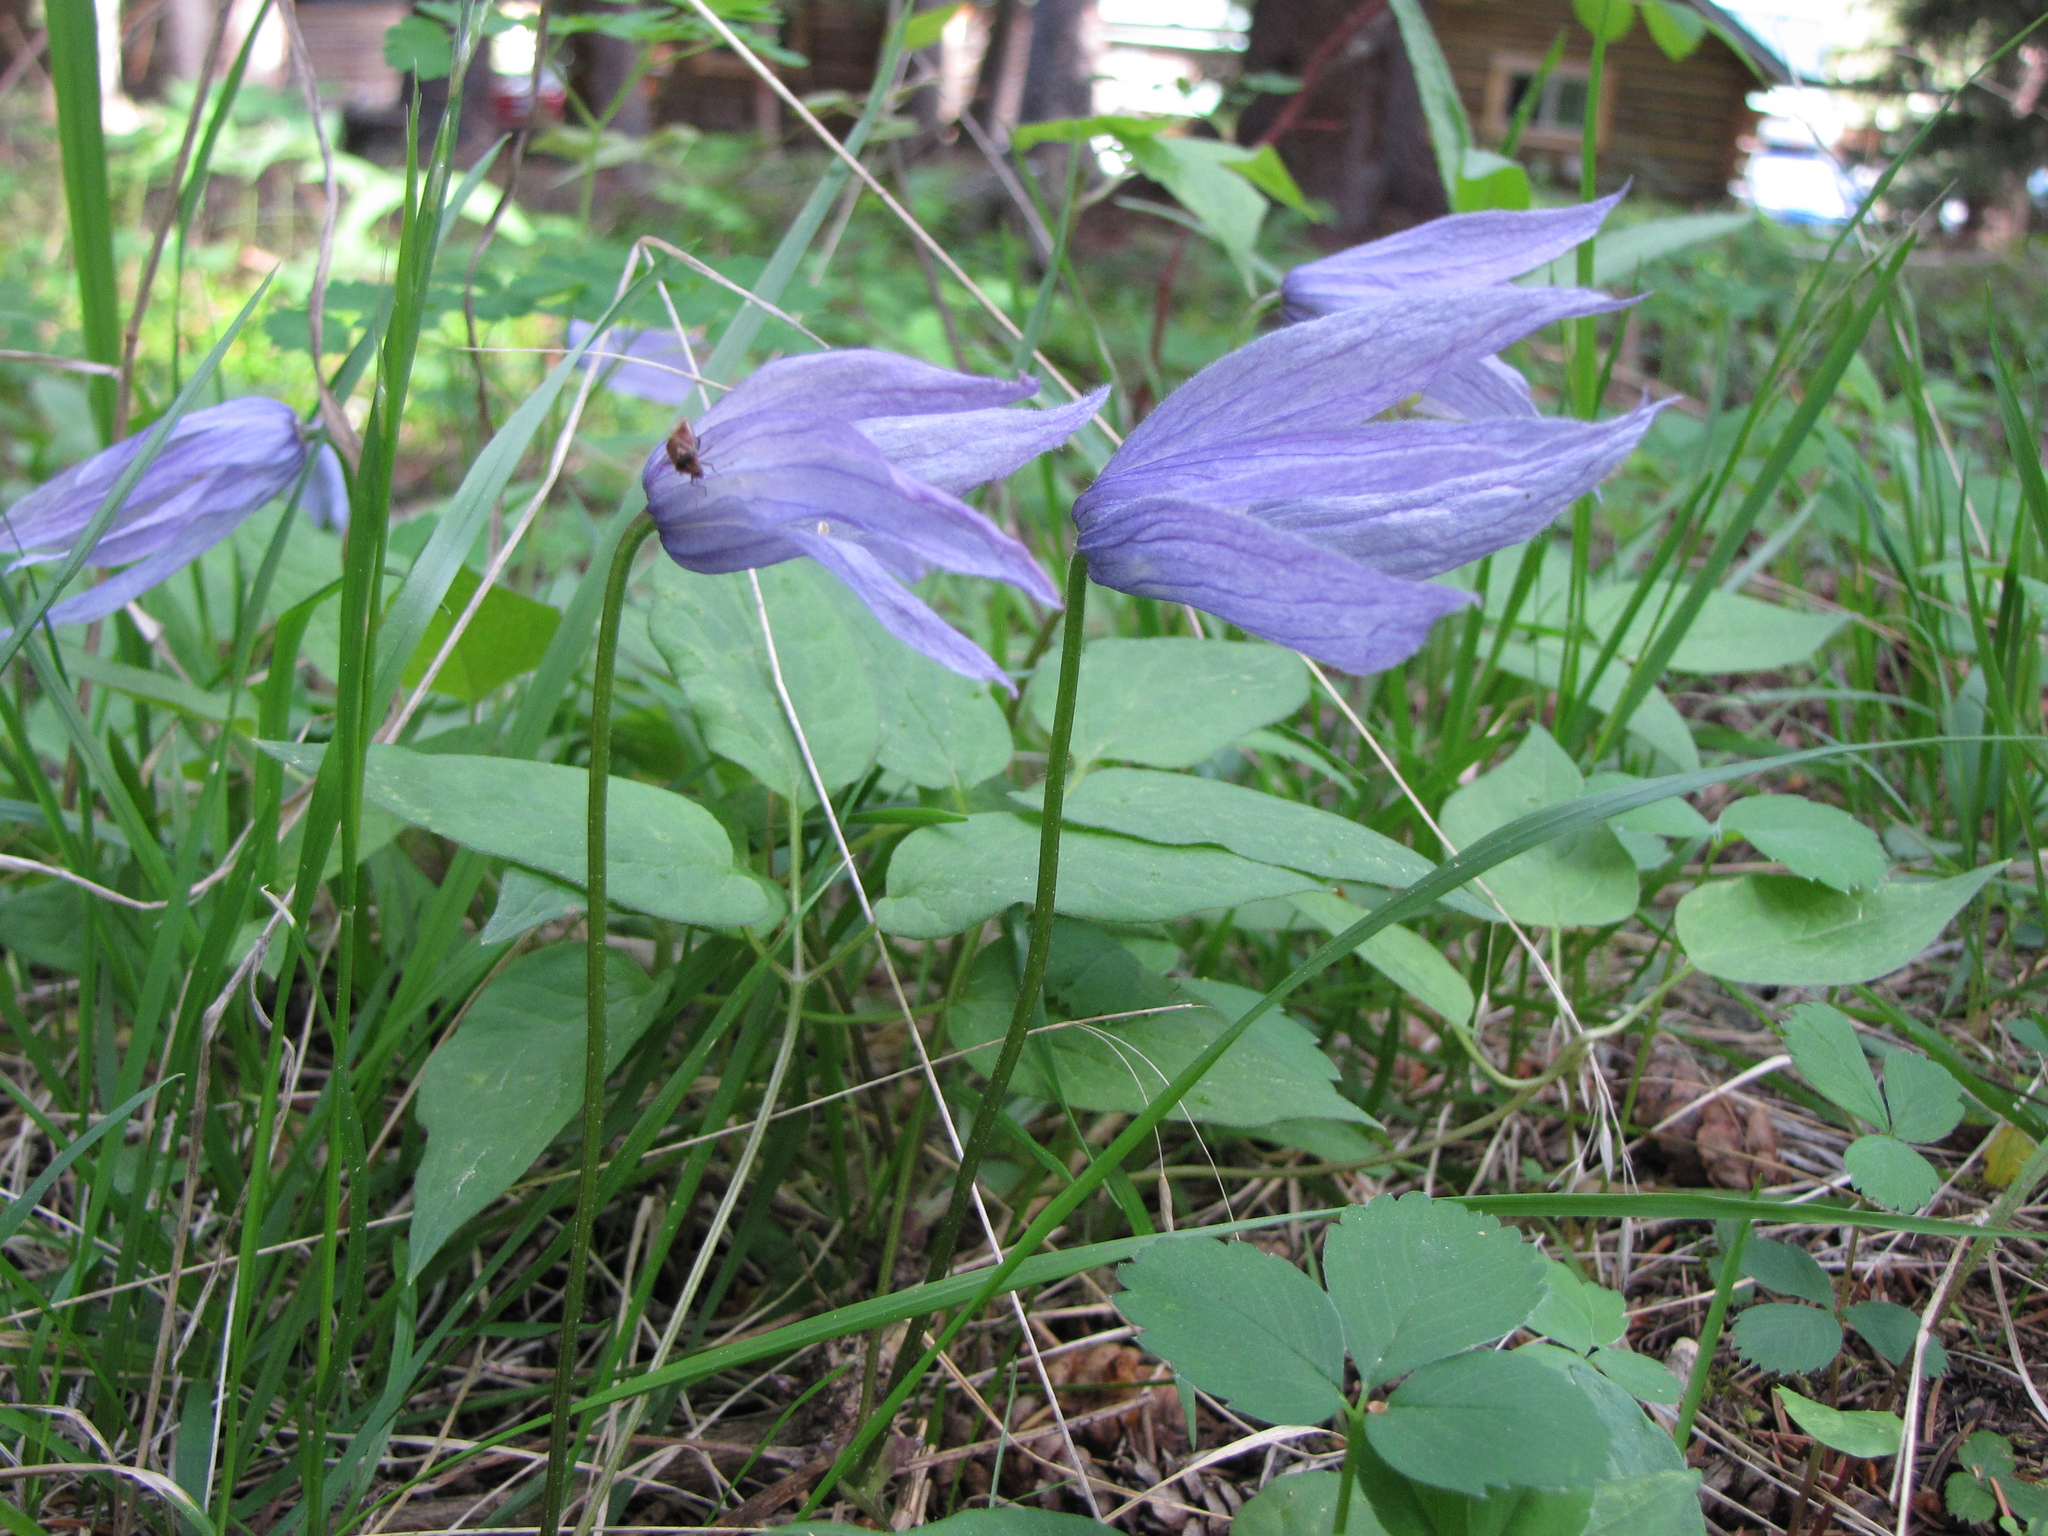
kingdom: Plantae
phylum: Tracheophyta
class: Magnoliopsida
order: Ranunculales
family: Ranunculaceae
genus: Clematis
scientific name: Clematis occidentalis
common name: Purple clematis
